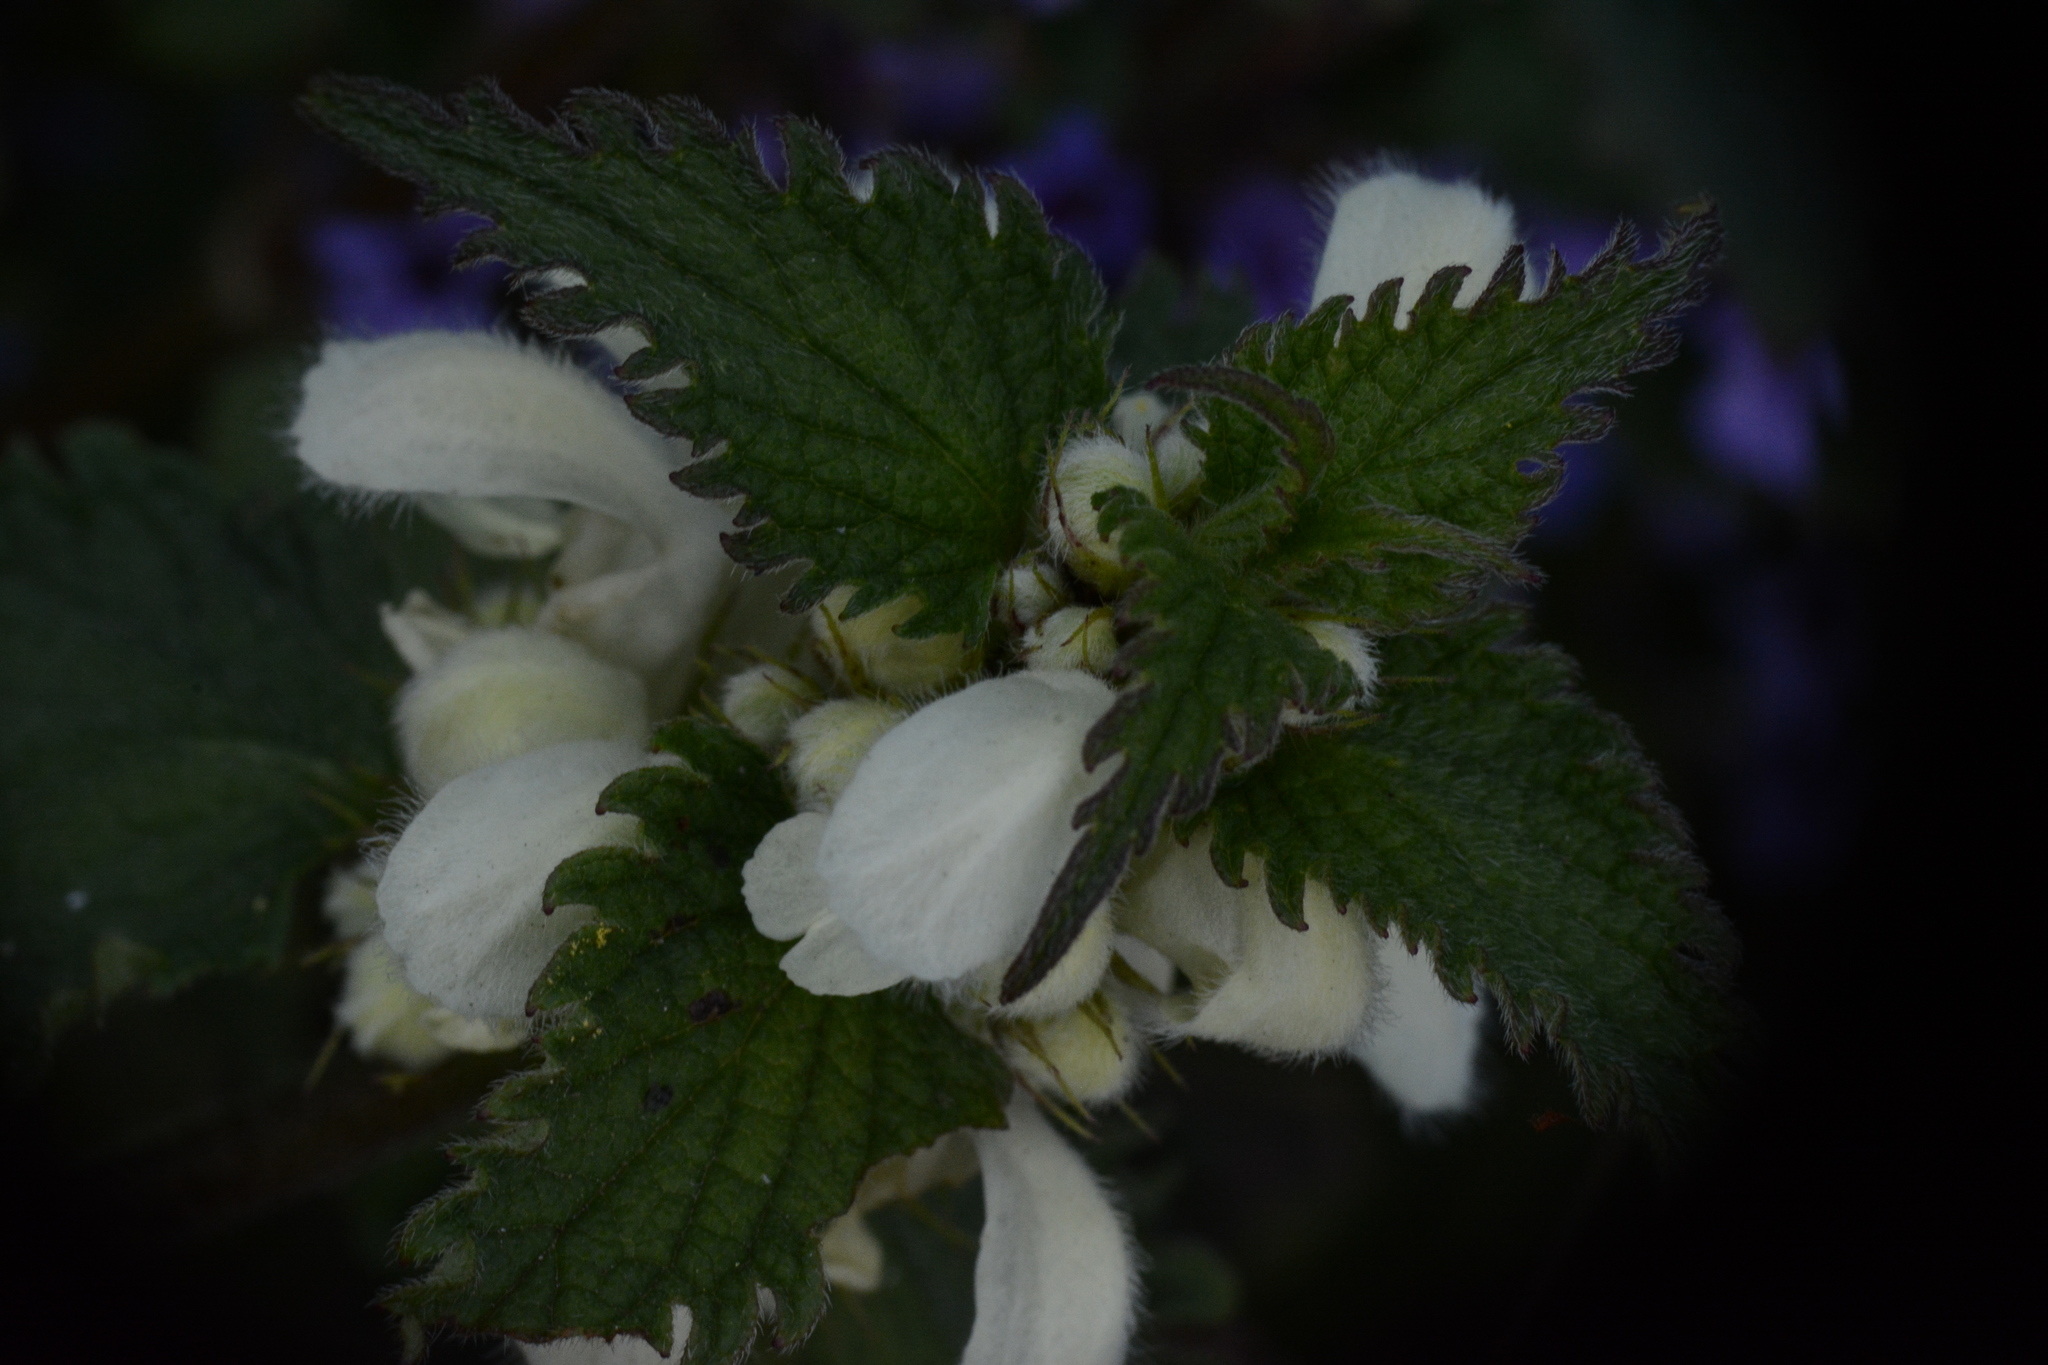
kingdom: Plantae
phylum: Tracheophyta
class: Magnoliopsida
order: Lamiales
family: Lamiaceae
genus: Lamium
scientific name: Lamium album
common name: White dead-nettle
